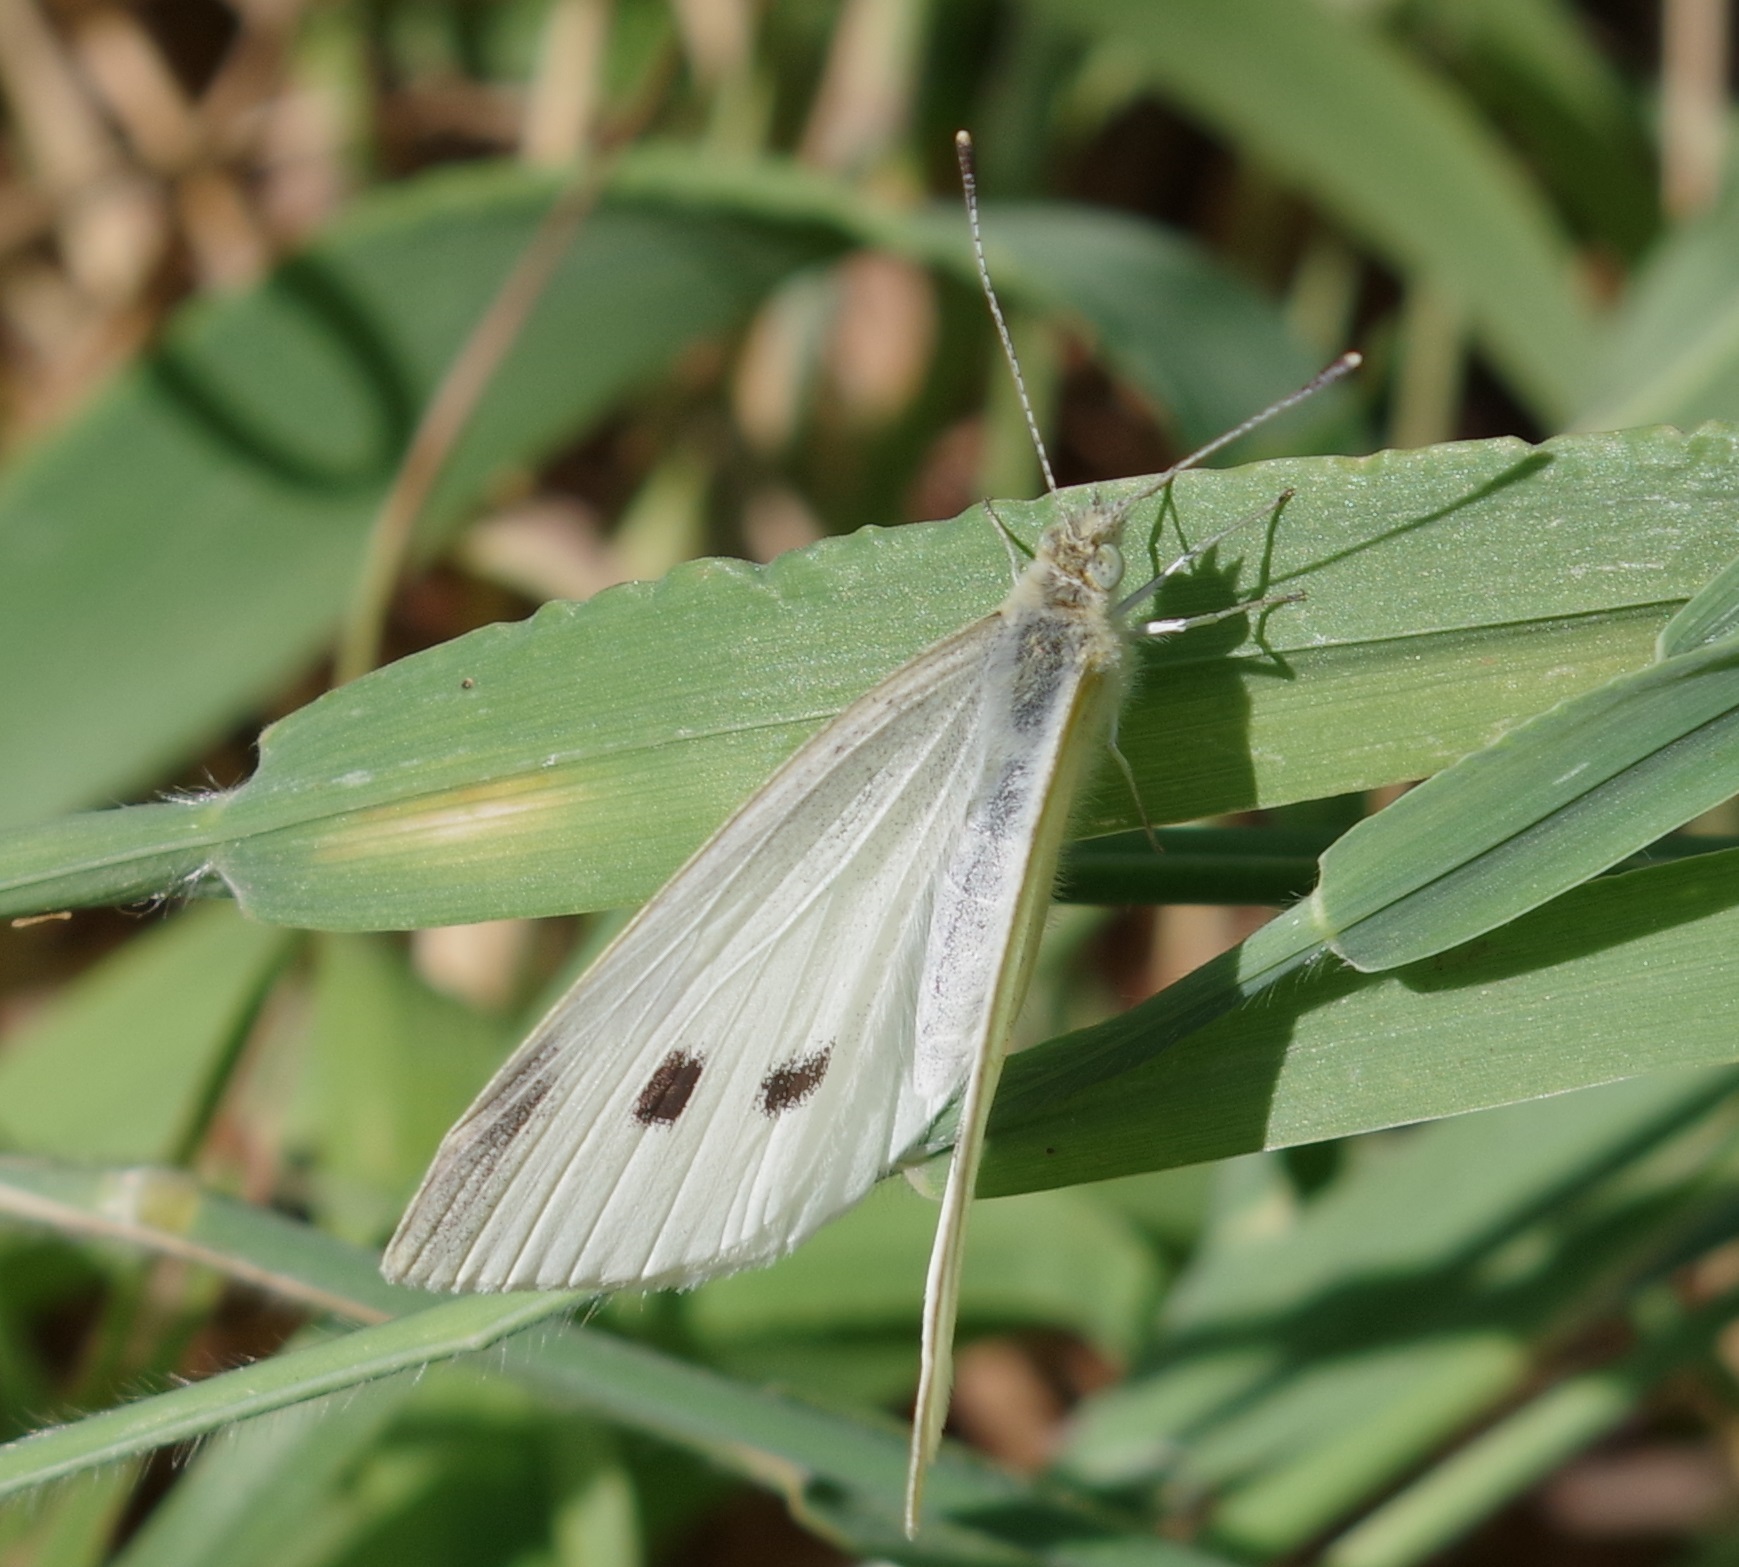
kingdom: Animalia
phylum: Arthropoda
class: Insecta
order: Lepidoptera
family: Pieridae
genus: Pieris
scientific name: Pieris rapae
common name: Small white
